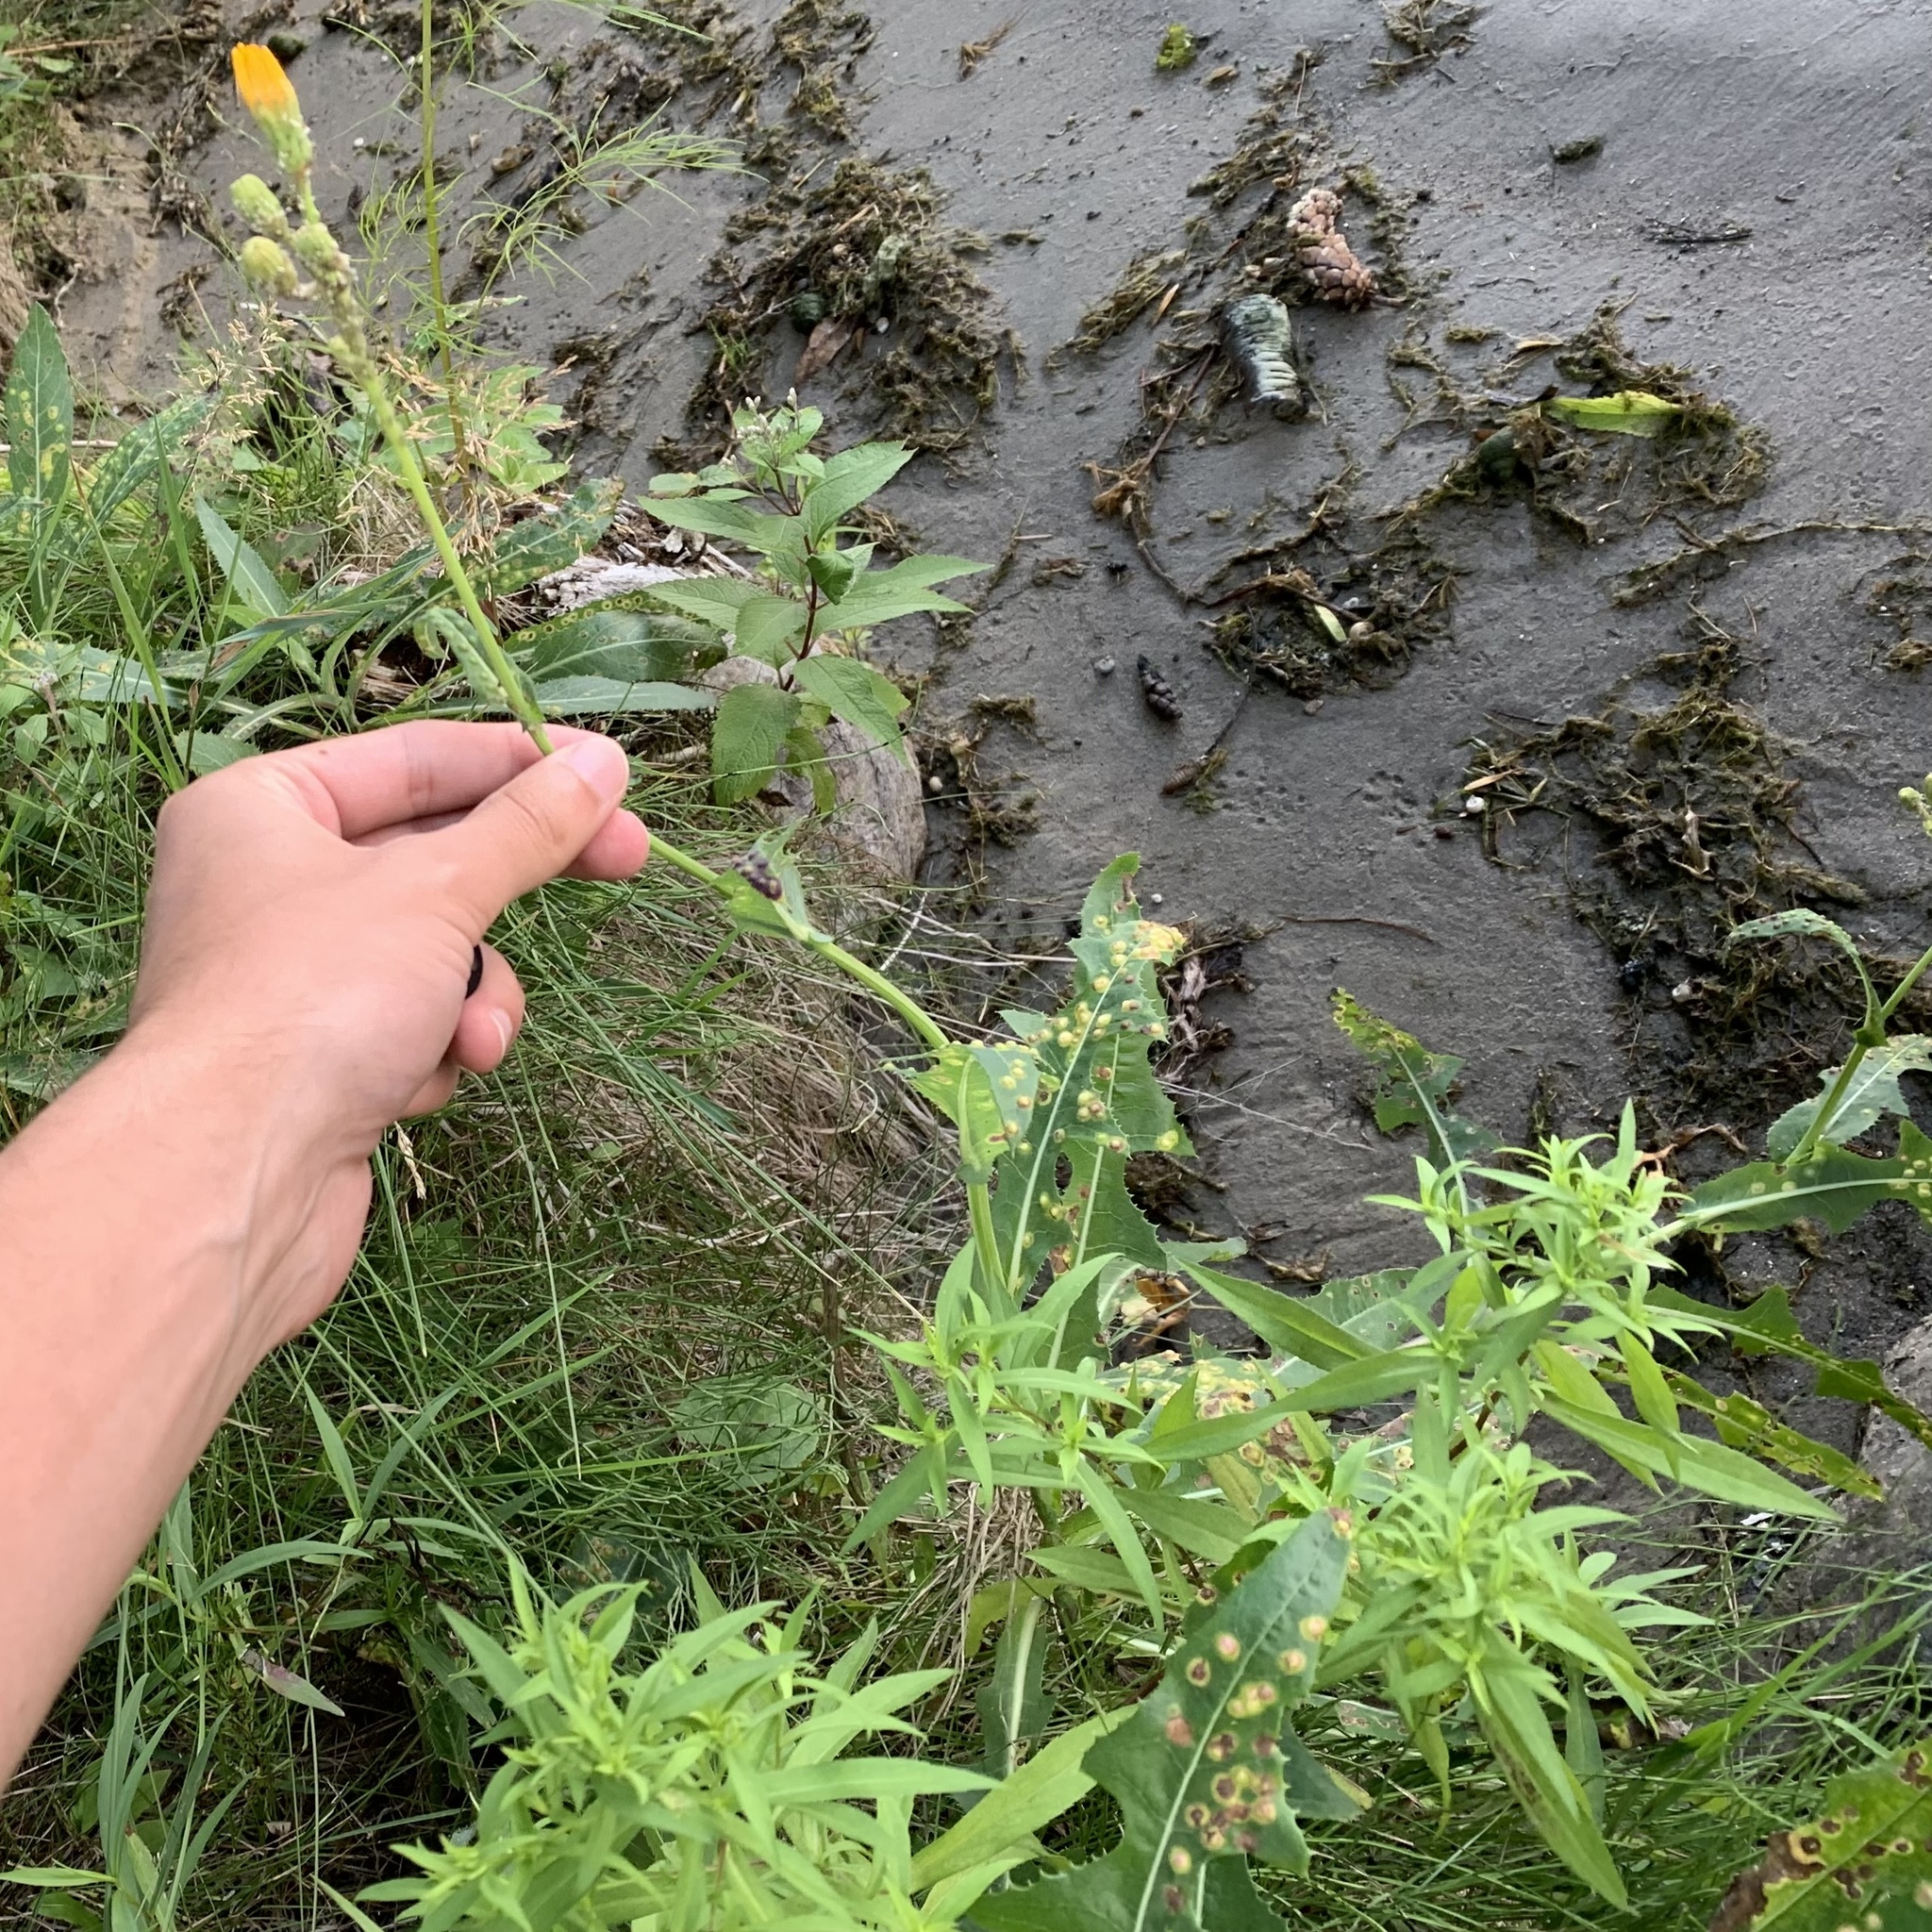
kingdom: Animalia
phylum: Arthropoda
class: Insecta
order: Diptera
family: Cecidomyiidae
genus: Cystiphora
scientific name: Cystiphora sonchi
